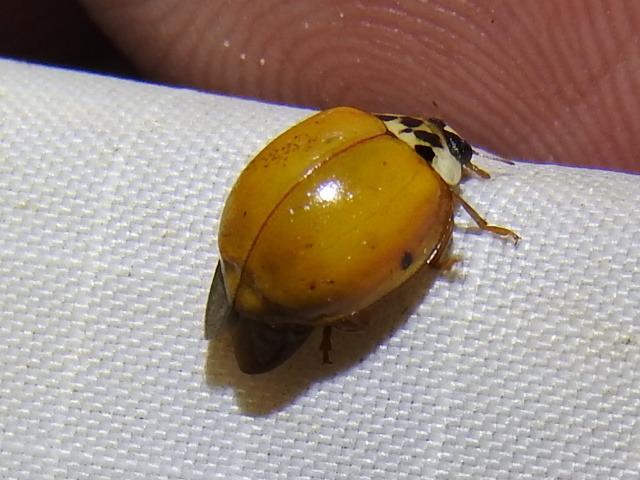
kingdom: Animalia
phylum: Arthropoda
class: Insecta
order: Coleoptera
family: Coccinellidae
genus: Harmonia
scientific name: Harmonia axyridis
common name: Harlequin ladybird
